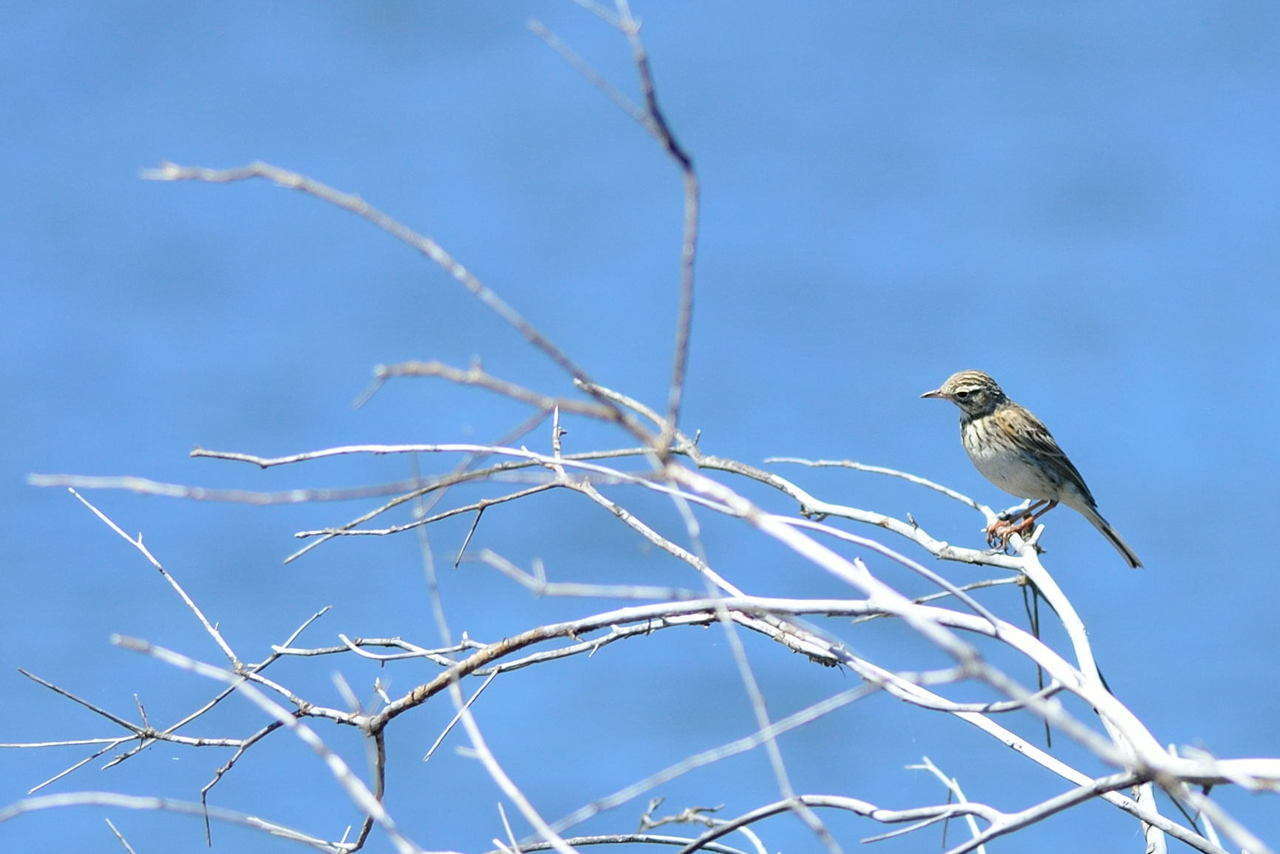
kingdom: Animalia
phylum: Chordata
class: Aves
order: Passeriformes
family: Motacillidae
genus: Anthus
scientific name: Anthus australis
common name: Australian pipit
